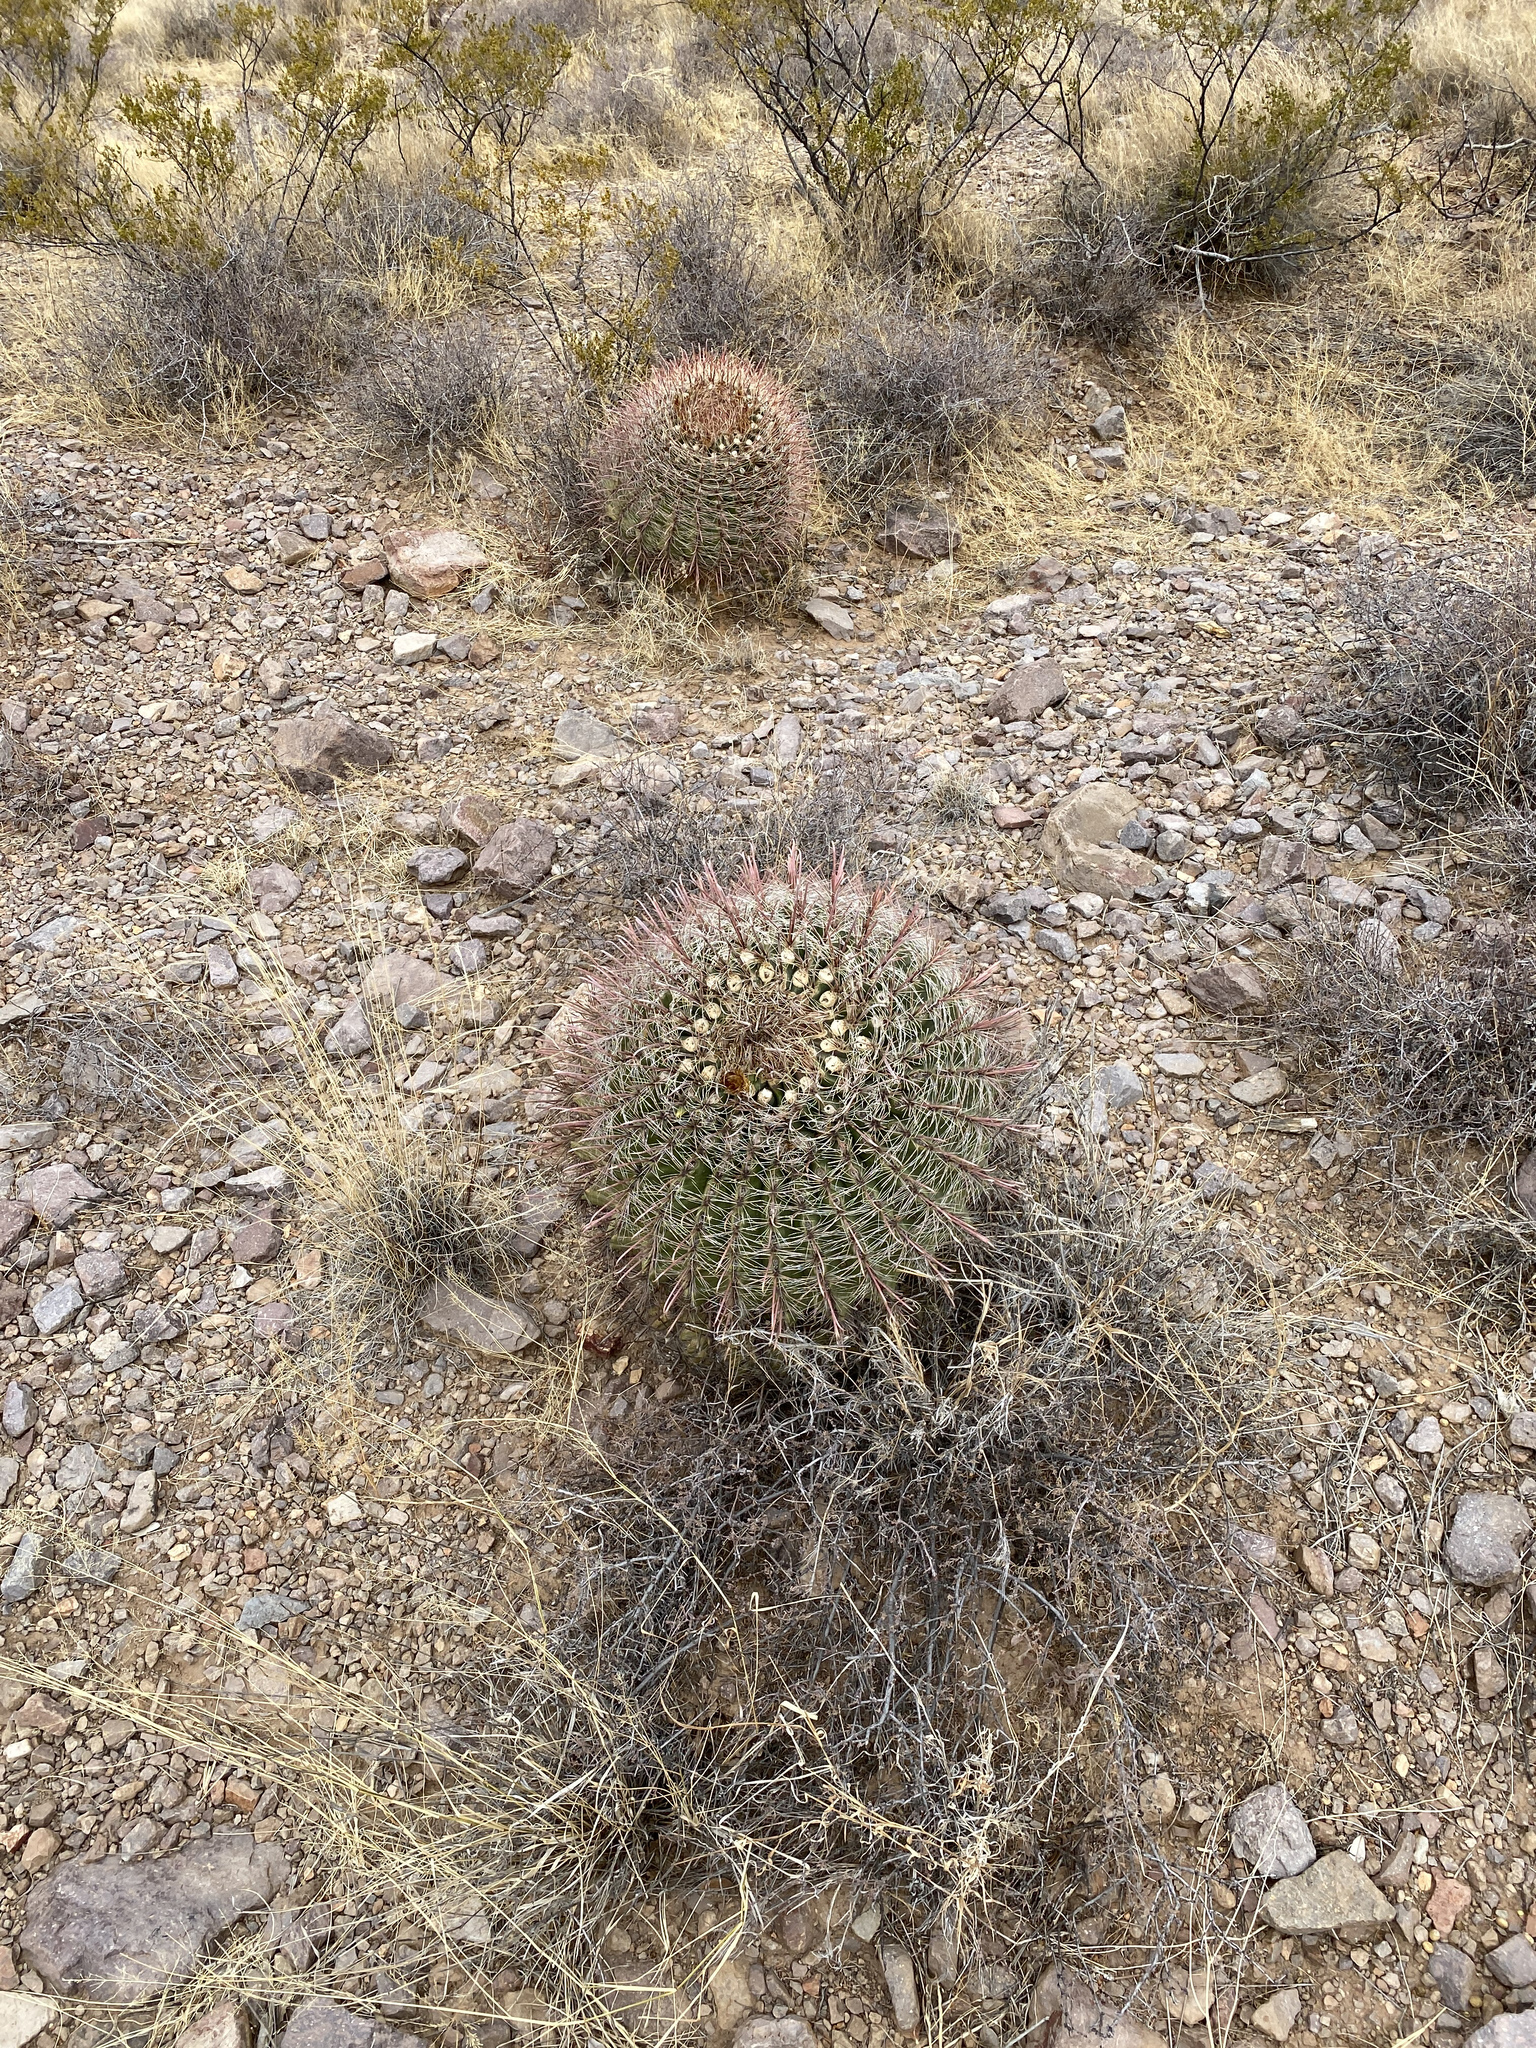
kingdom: Plantae
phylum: Tracheophyta
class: Magnoliopsida
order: Caryophyllales
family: Cactaceae
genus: Ferocactus
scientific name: Ferocactus wislizeni
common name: Candy barrel cactus
